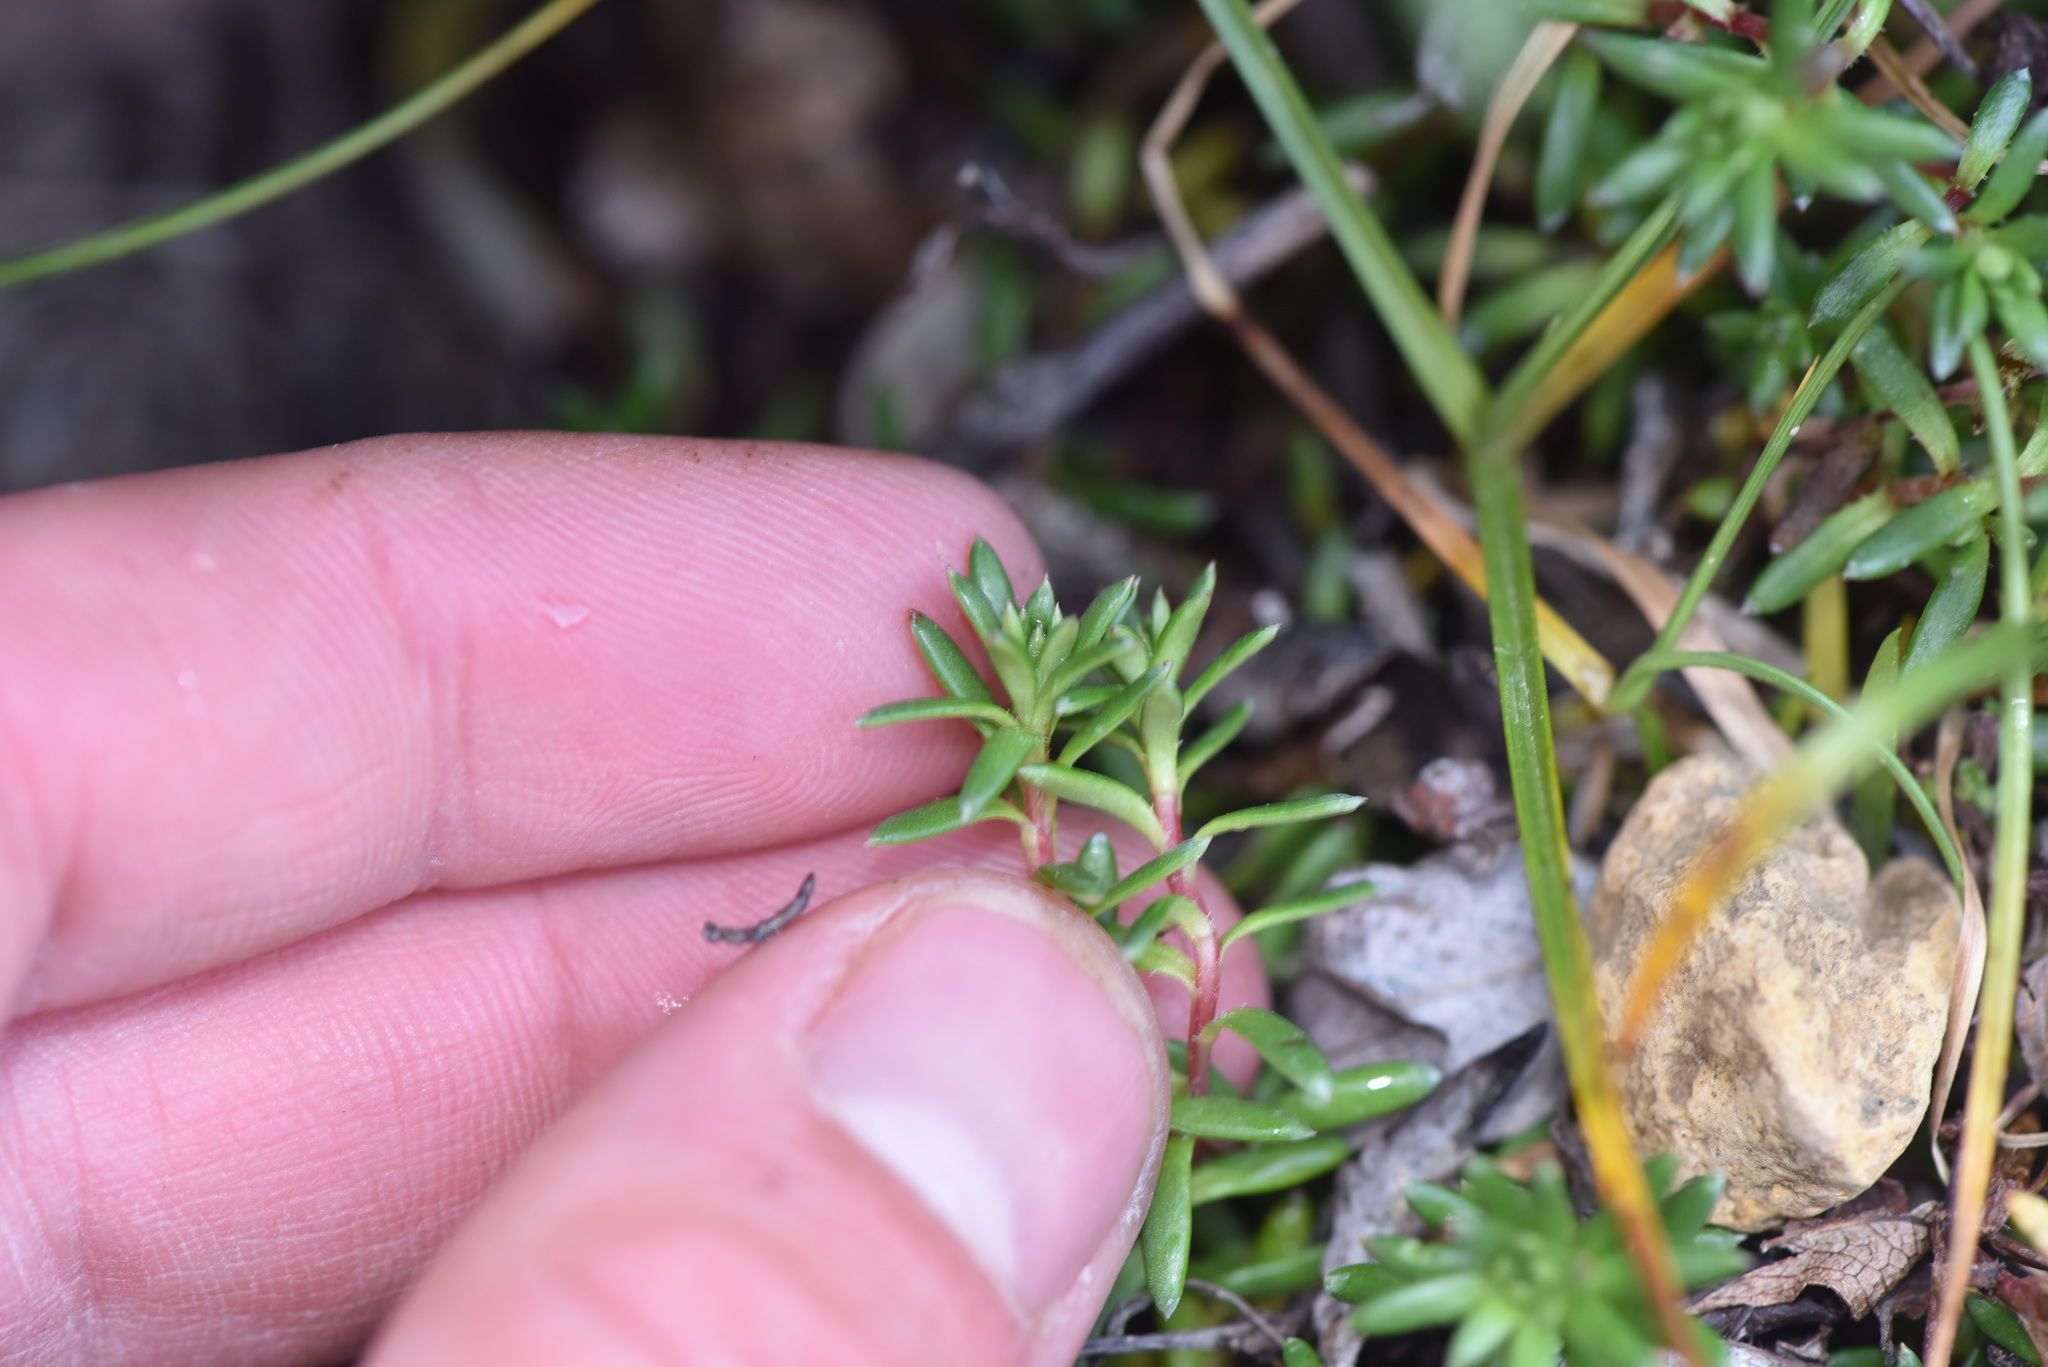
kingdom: Plantae
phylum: Tracheophyta
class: Magnoliopsida
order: Saxifragales
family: Saxifragaceae
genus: Saxifraga
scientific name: Saxifraga aizoides
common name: Yellow mountain saxifrage
